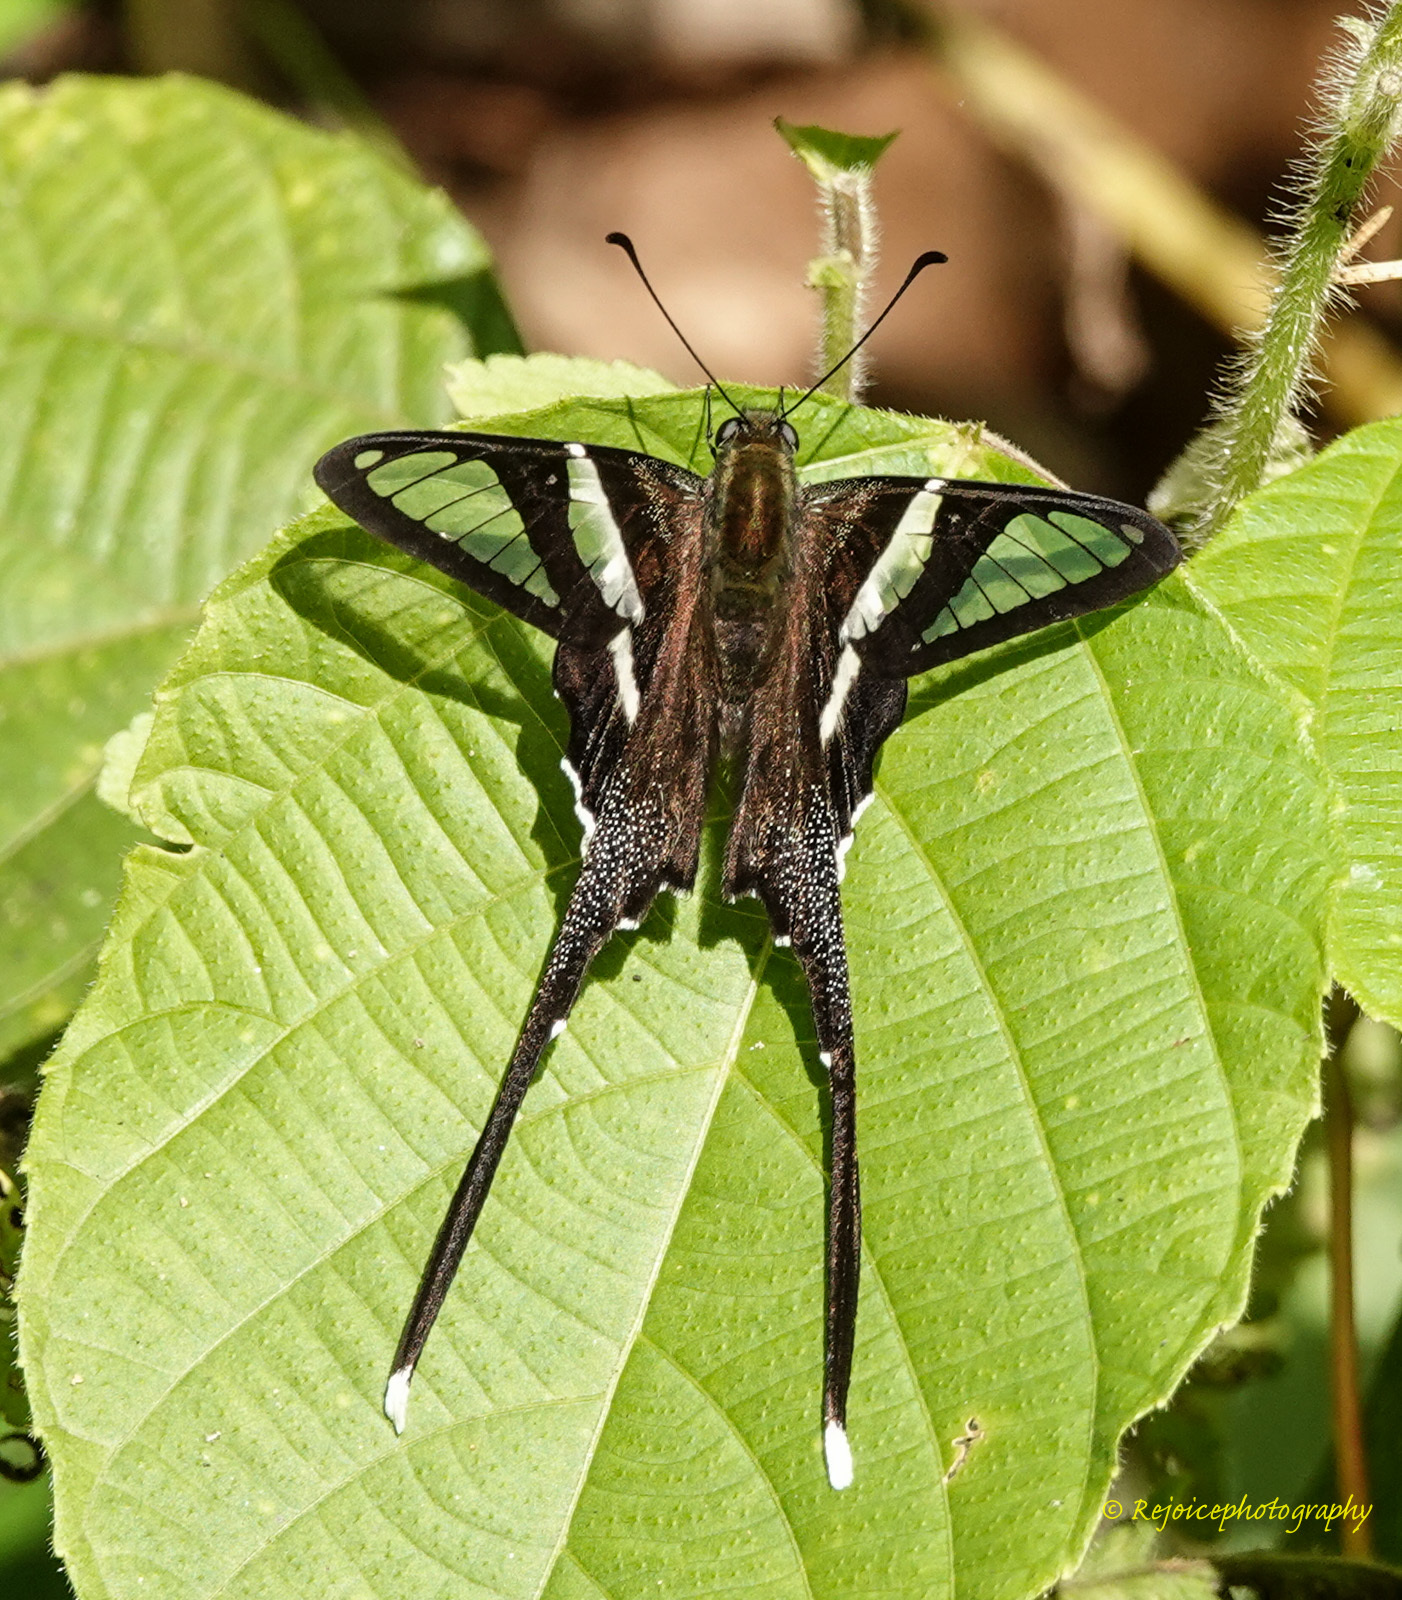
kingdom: Animalia
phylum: Arthropoda
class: Insecta
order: Lepidoptera
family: Papilionidae
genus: Lamproptera
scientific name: Lamproptera curius
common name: White dragontail
